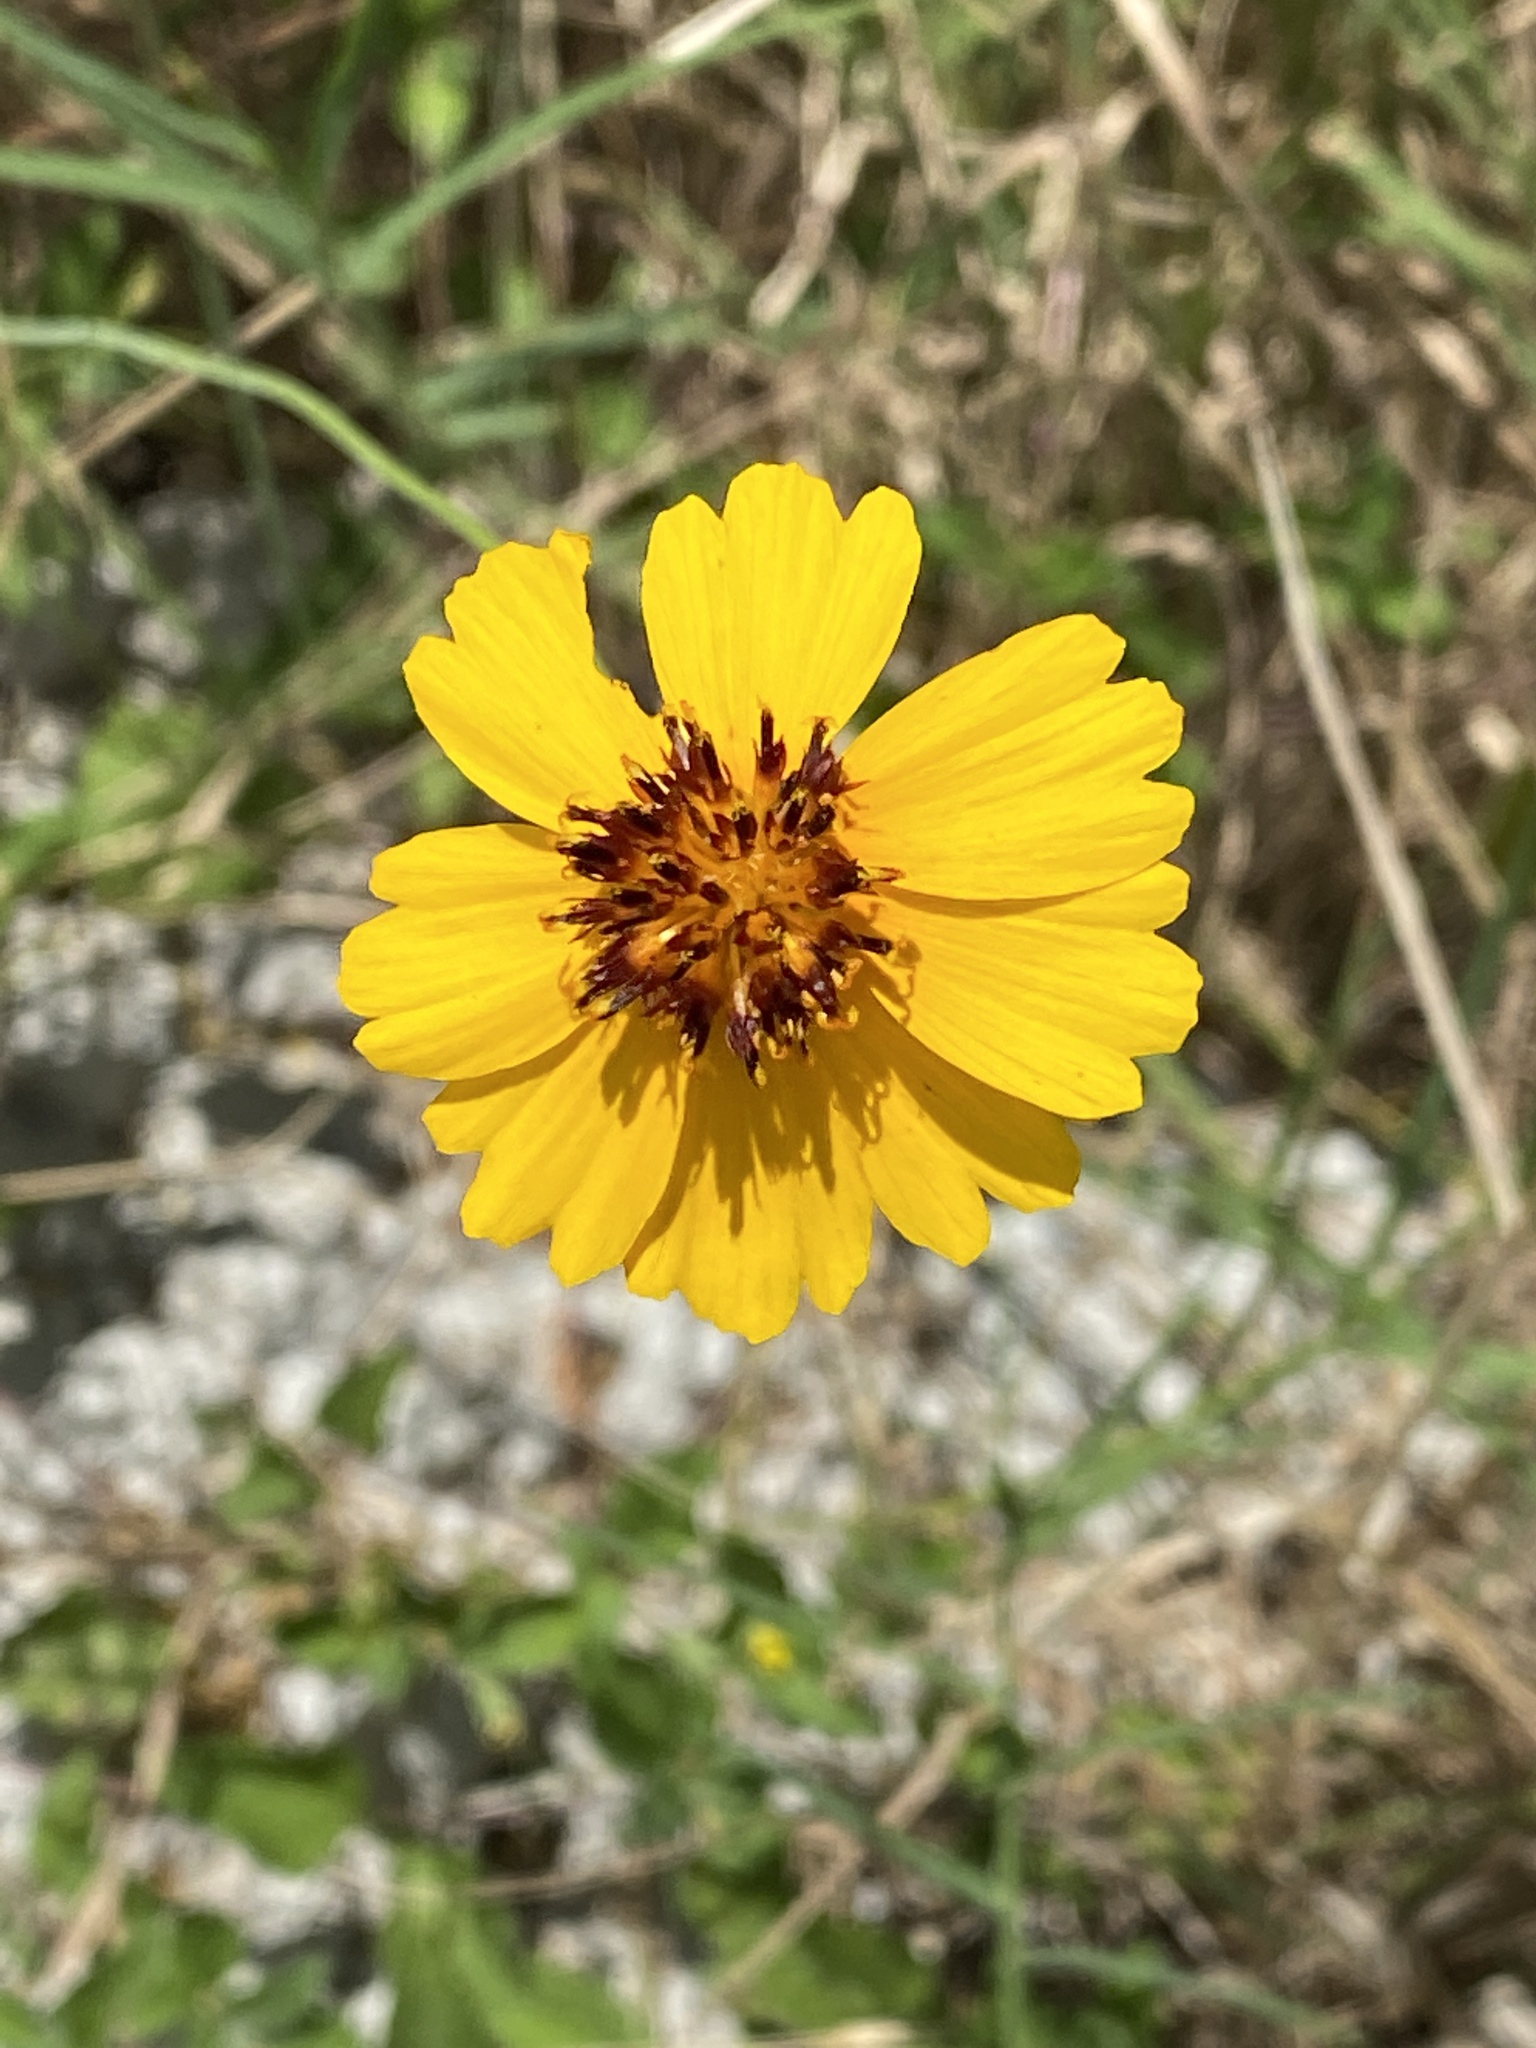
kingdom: Plantae
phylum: Tracheophyta
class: Magnoliopsida
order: Asterales
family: Asteraceae
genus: Thelesperma
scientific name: Thelesperma filifolium
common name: Stiff greenthread
